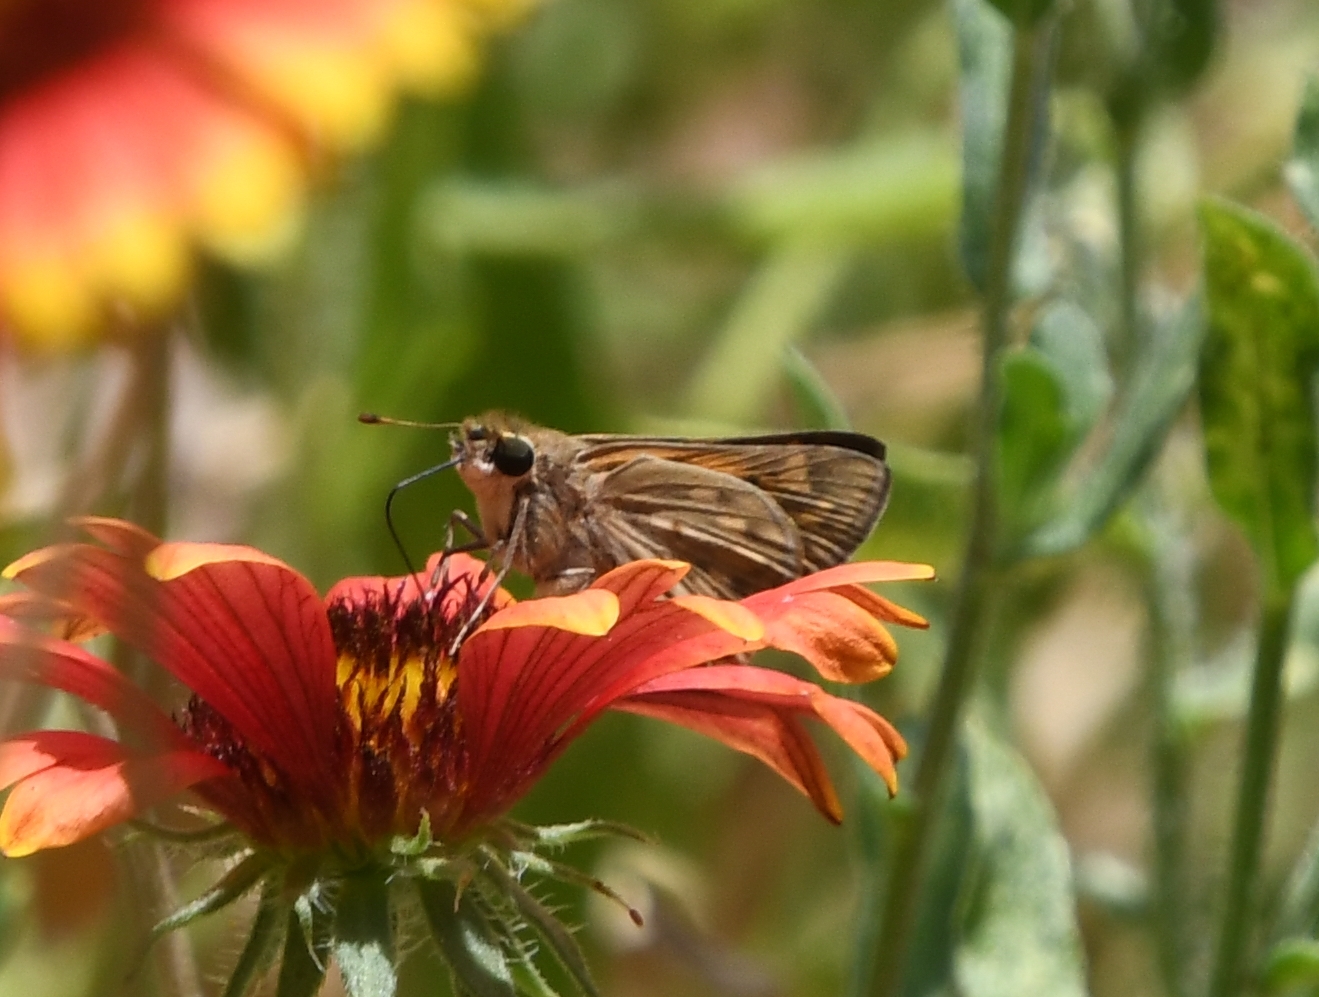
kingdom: Animalia
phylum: Arthropoda
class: Insecta
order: Lepidoptera
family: Hesperiidae
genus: Hylephila
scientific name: Hylephila phyleus
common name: Fiery skipper
